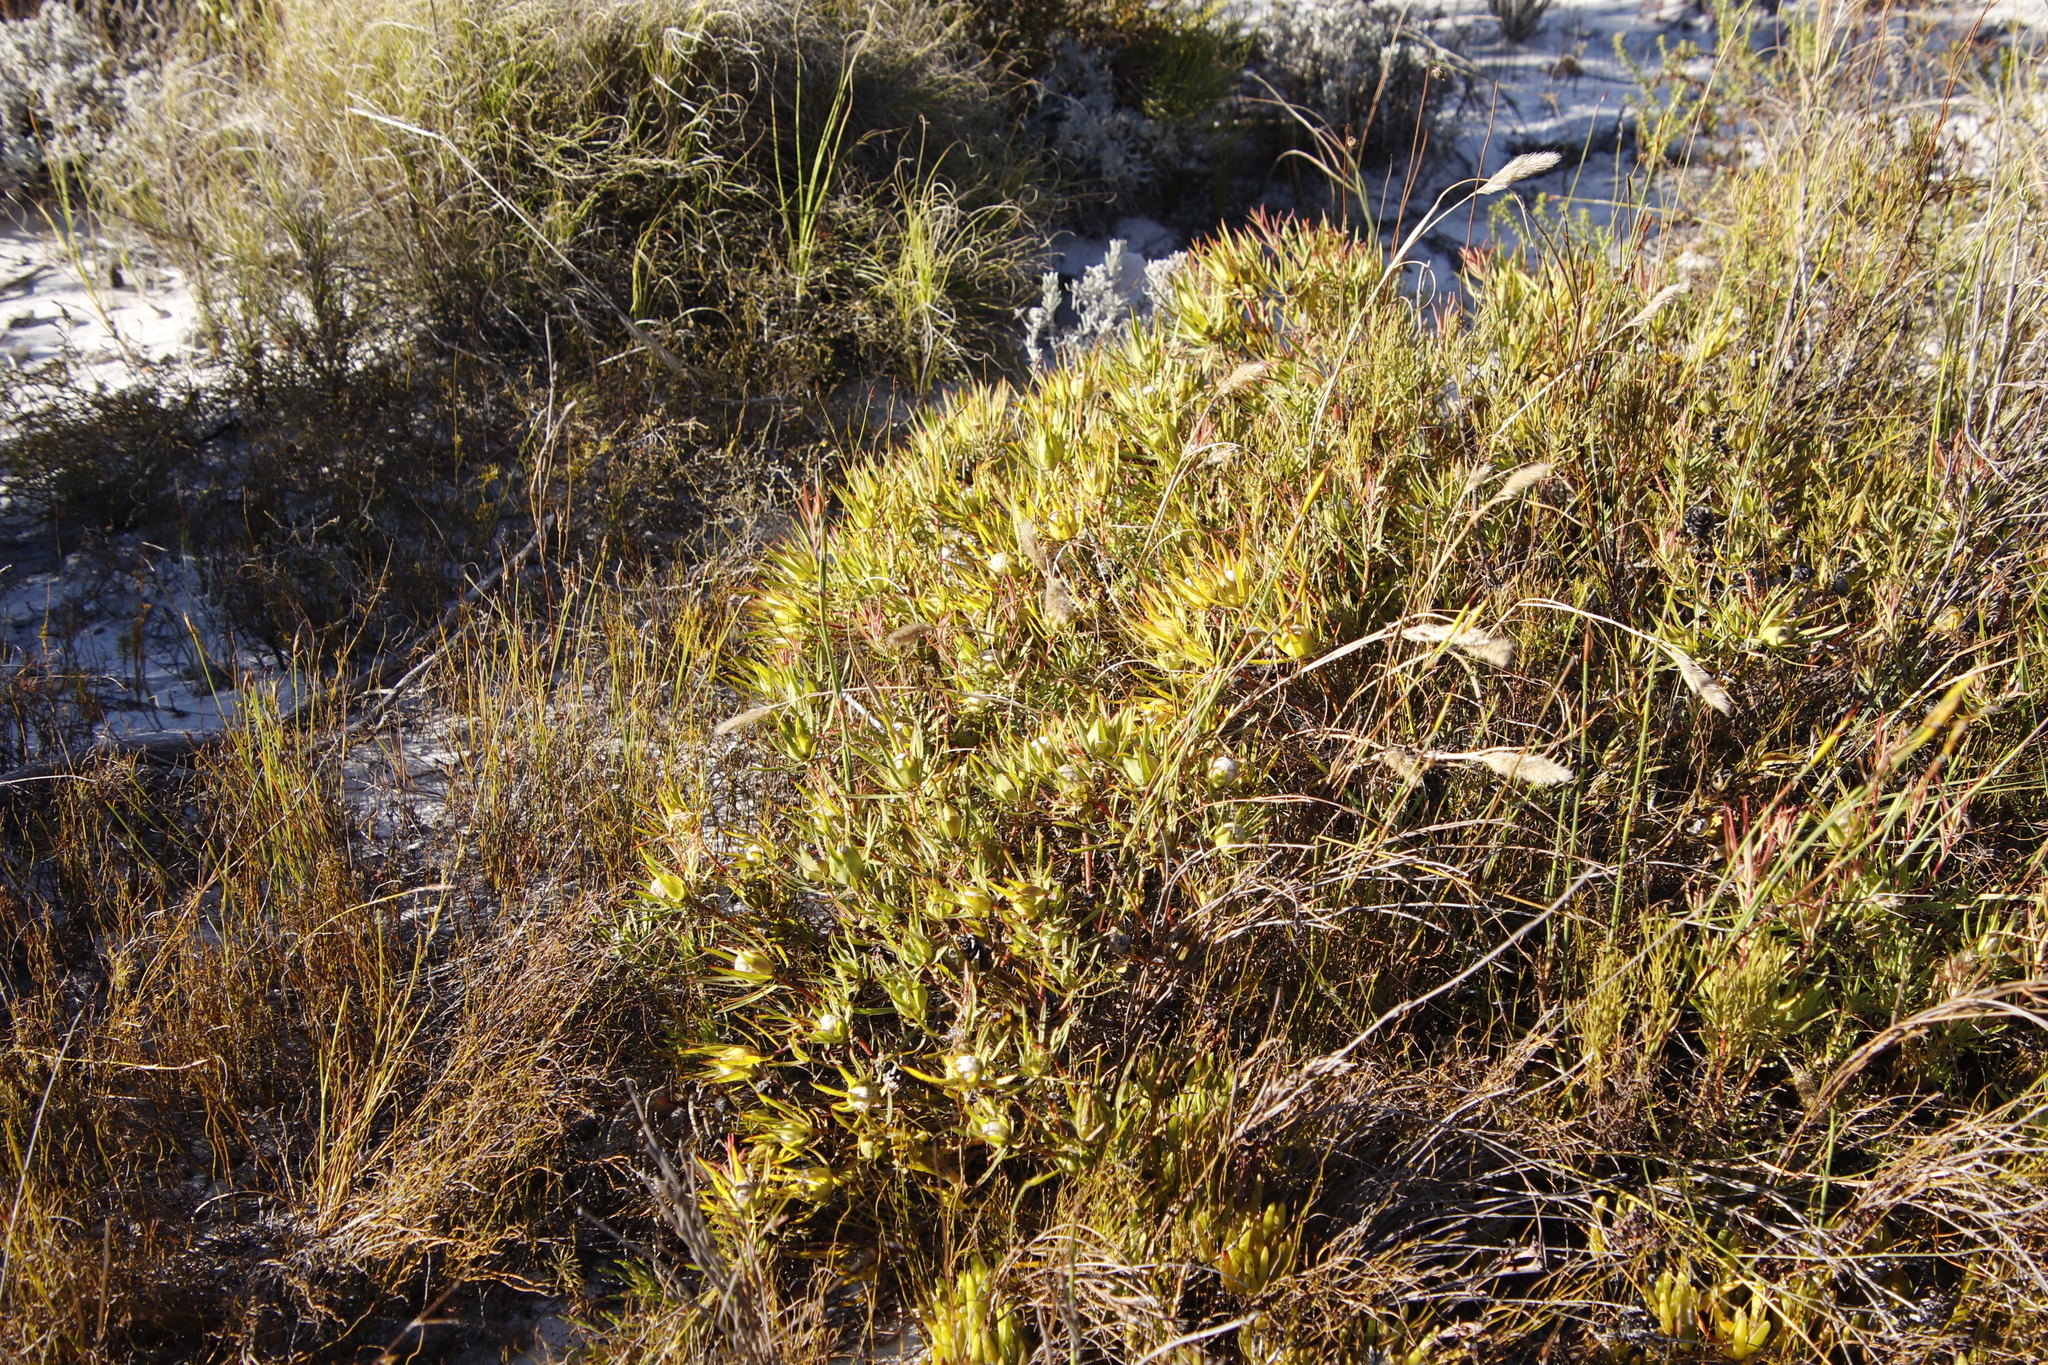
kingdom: Plantae
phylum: Tracheophyta
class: Magnoliopsida
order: Proteales
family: Proteaceae
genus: Leucadendron
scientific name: Leucadendron salignum
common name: Common sunshine conebush
